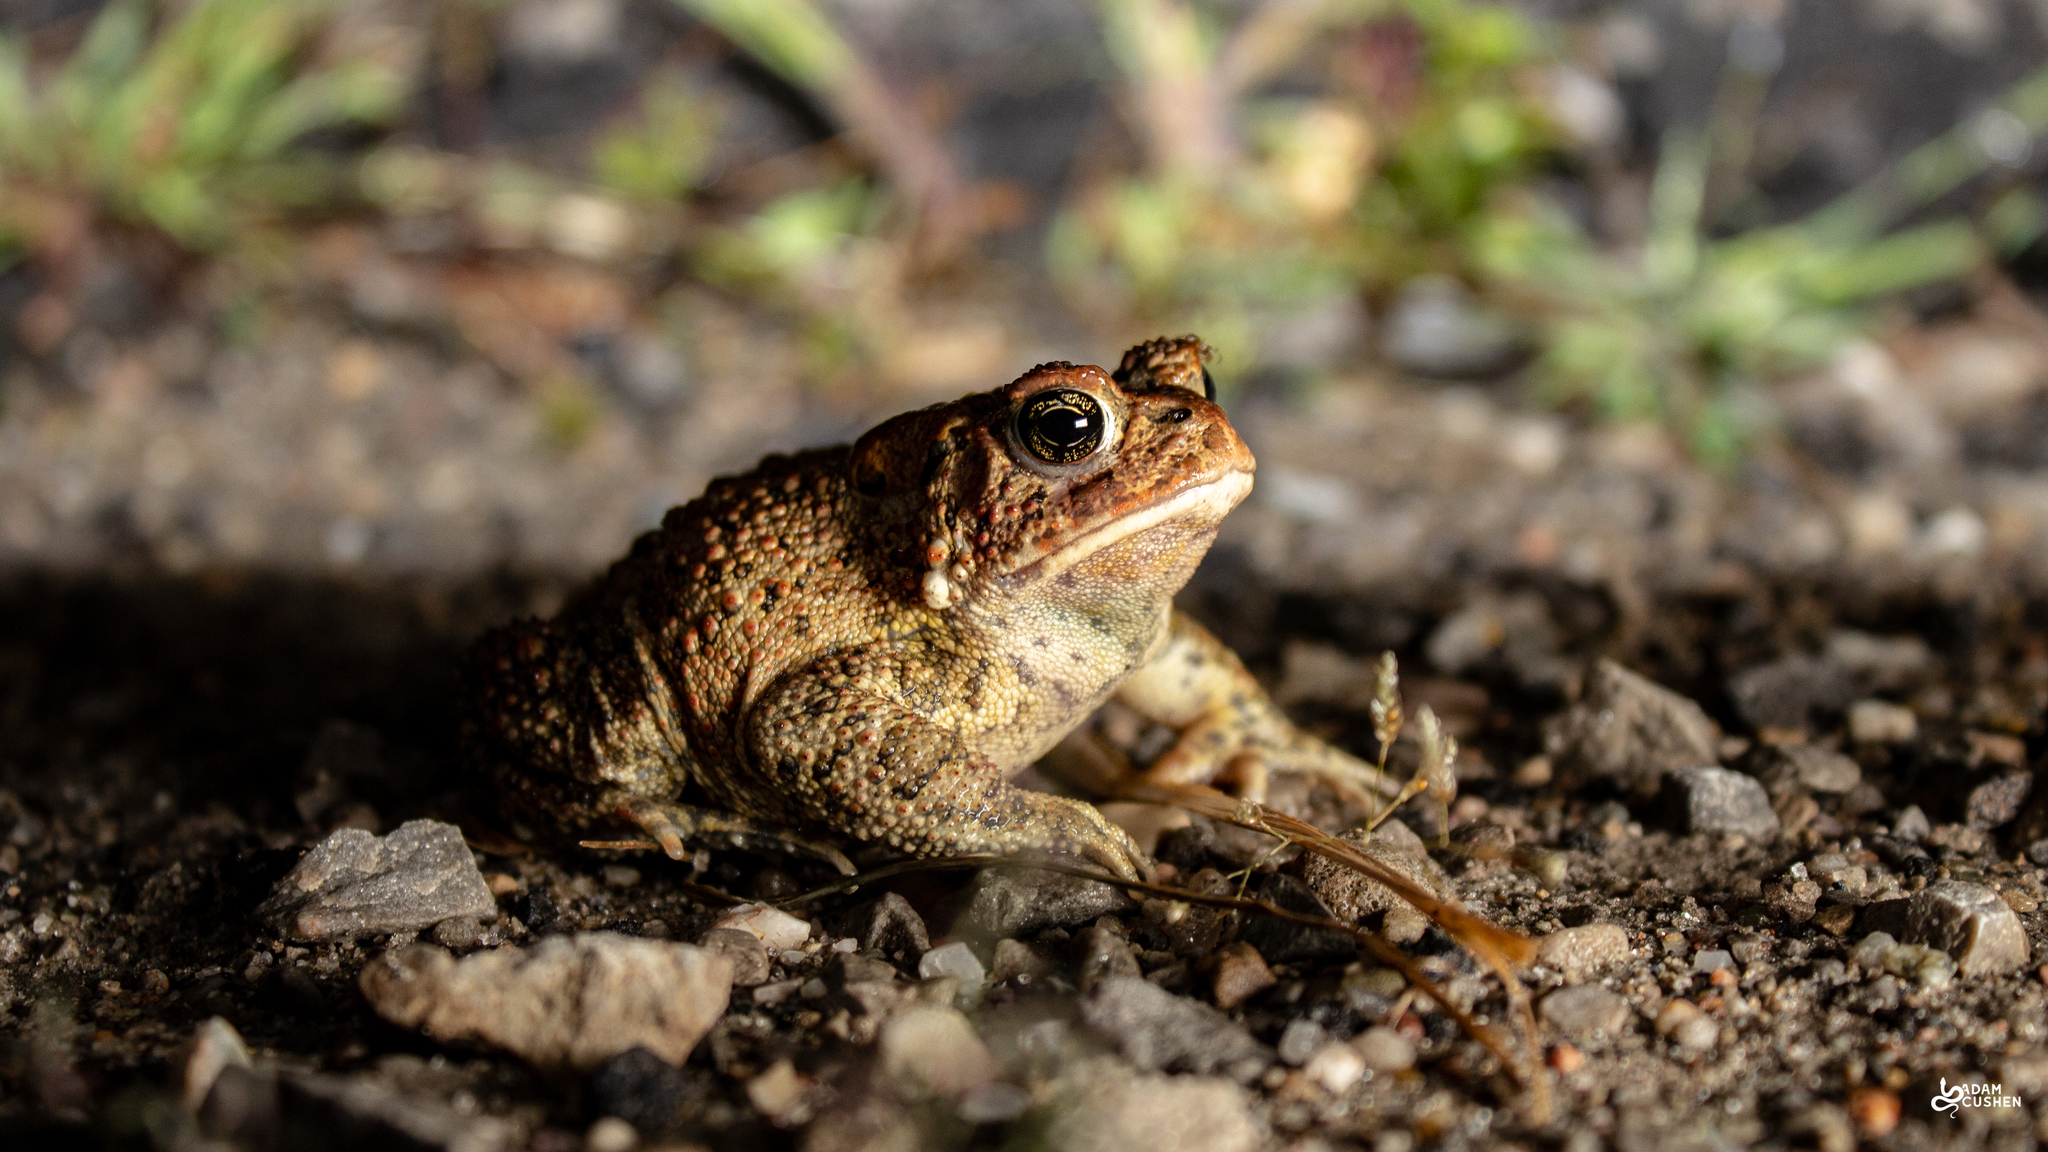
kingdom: Animalia
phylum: Chordata
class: Amphibia
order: Anura
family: Bufonidae
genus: Anaxyrus
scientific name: Anaxyrus americanus
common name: American toad
